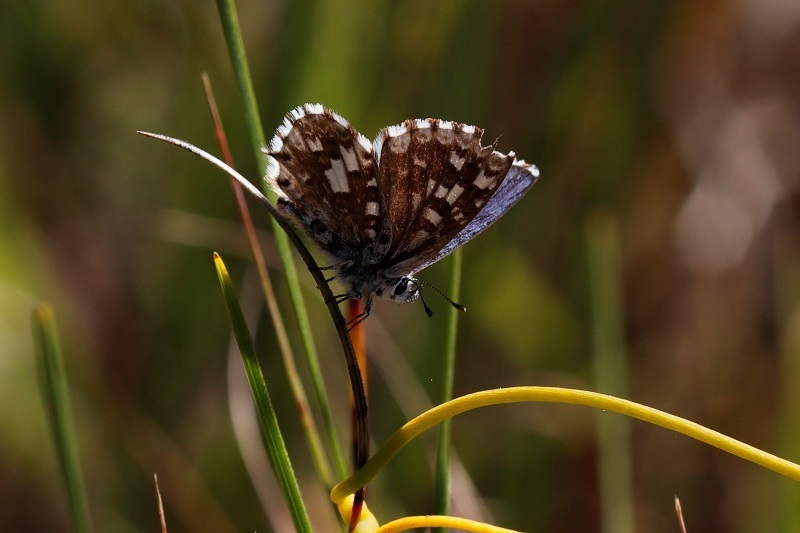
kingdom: Animalia
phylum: Arthropoda
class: Insecta
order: Lepidoptera
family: Lycaenidae
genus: Tarucus
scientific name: Tarucus thespis
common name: Vivid dotted blue
